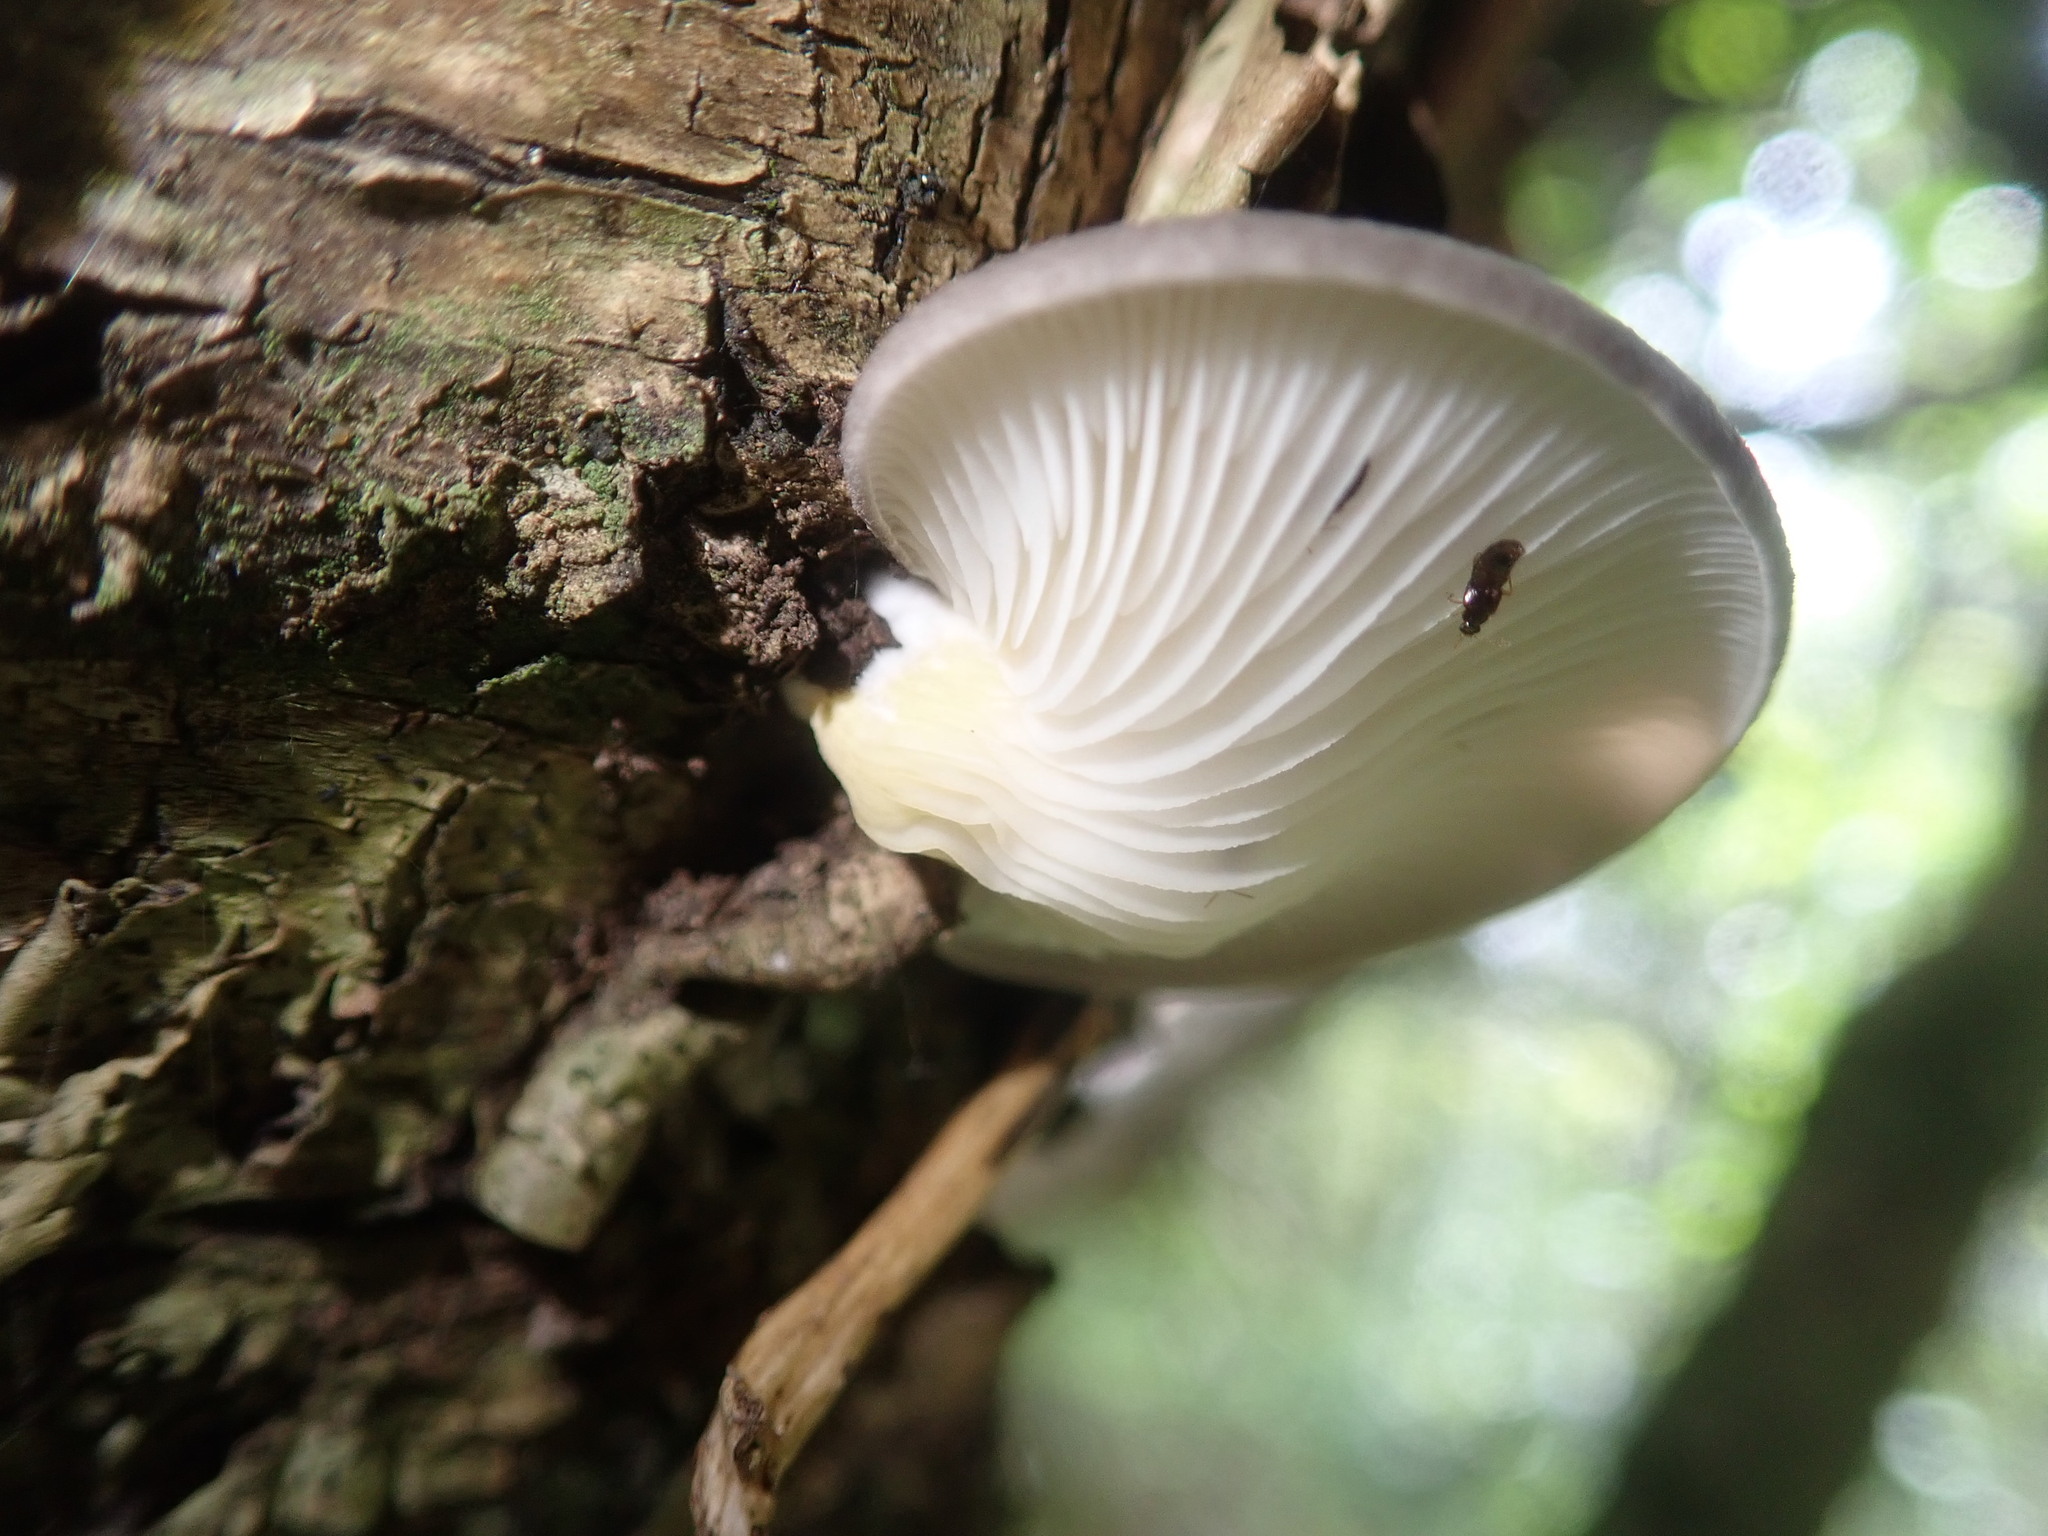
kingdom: Fungi
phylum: Basidiomycota
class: Agaricomycetes
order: Agaricales
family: Pleurotaceae
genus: Pleurotus
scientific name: Pleurotus pulmonarius
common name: Pale oyster
